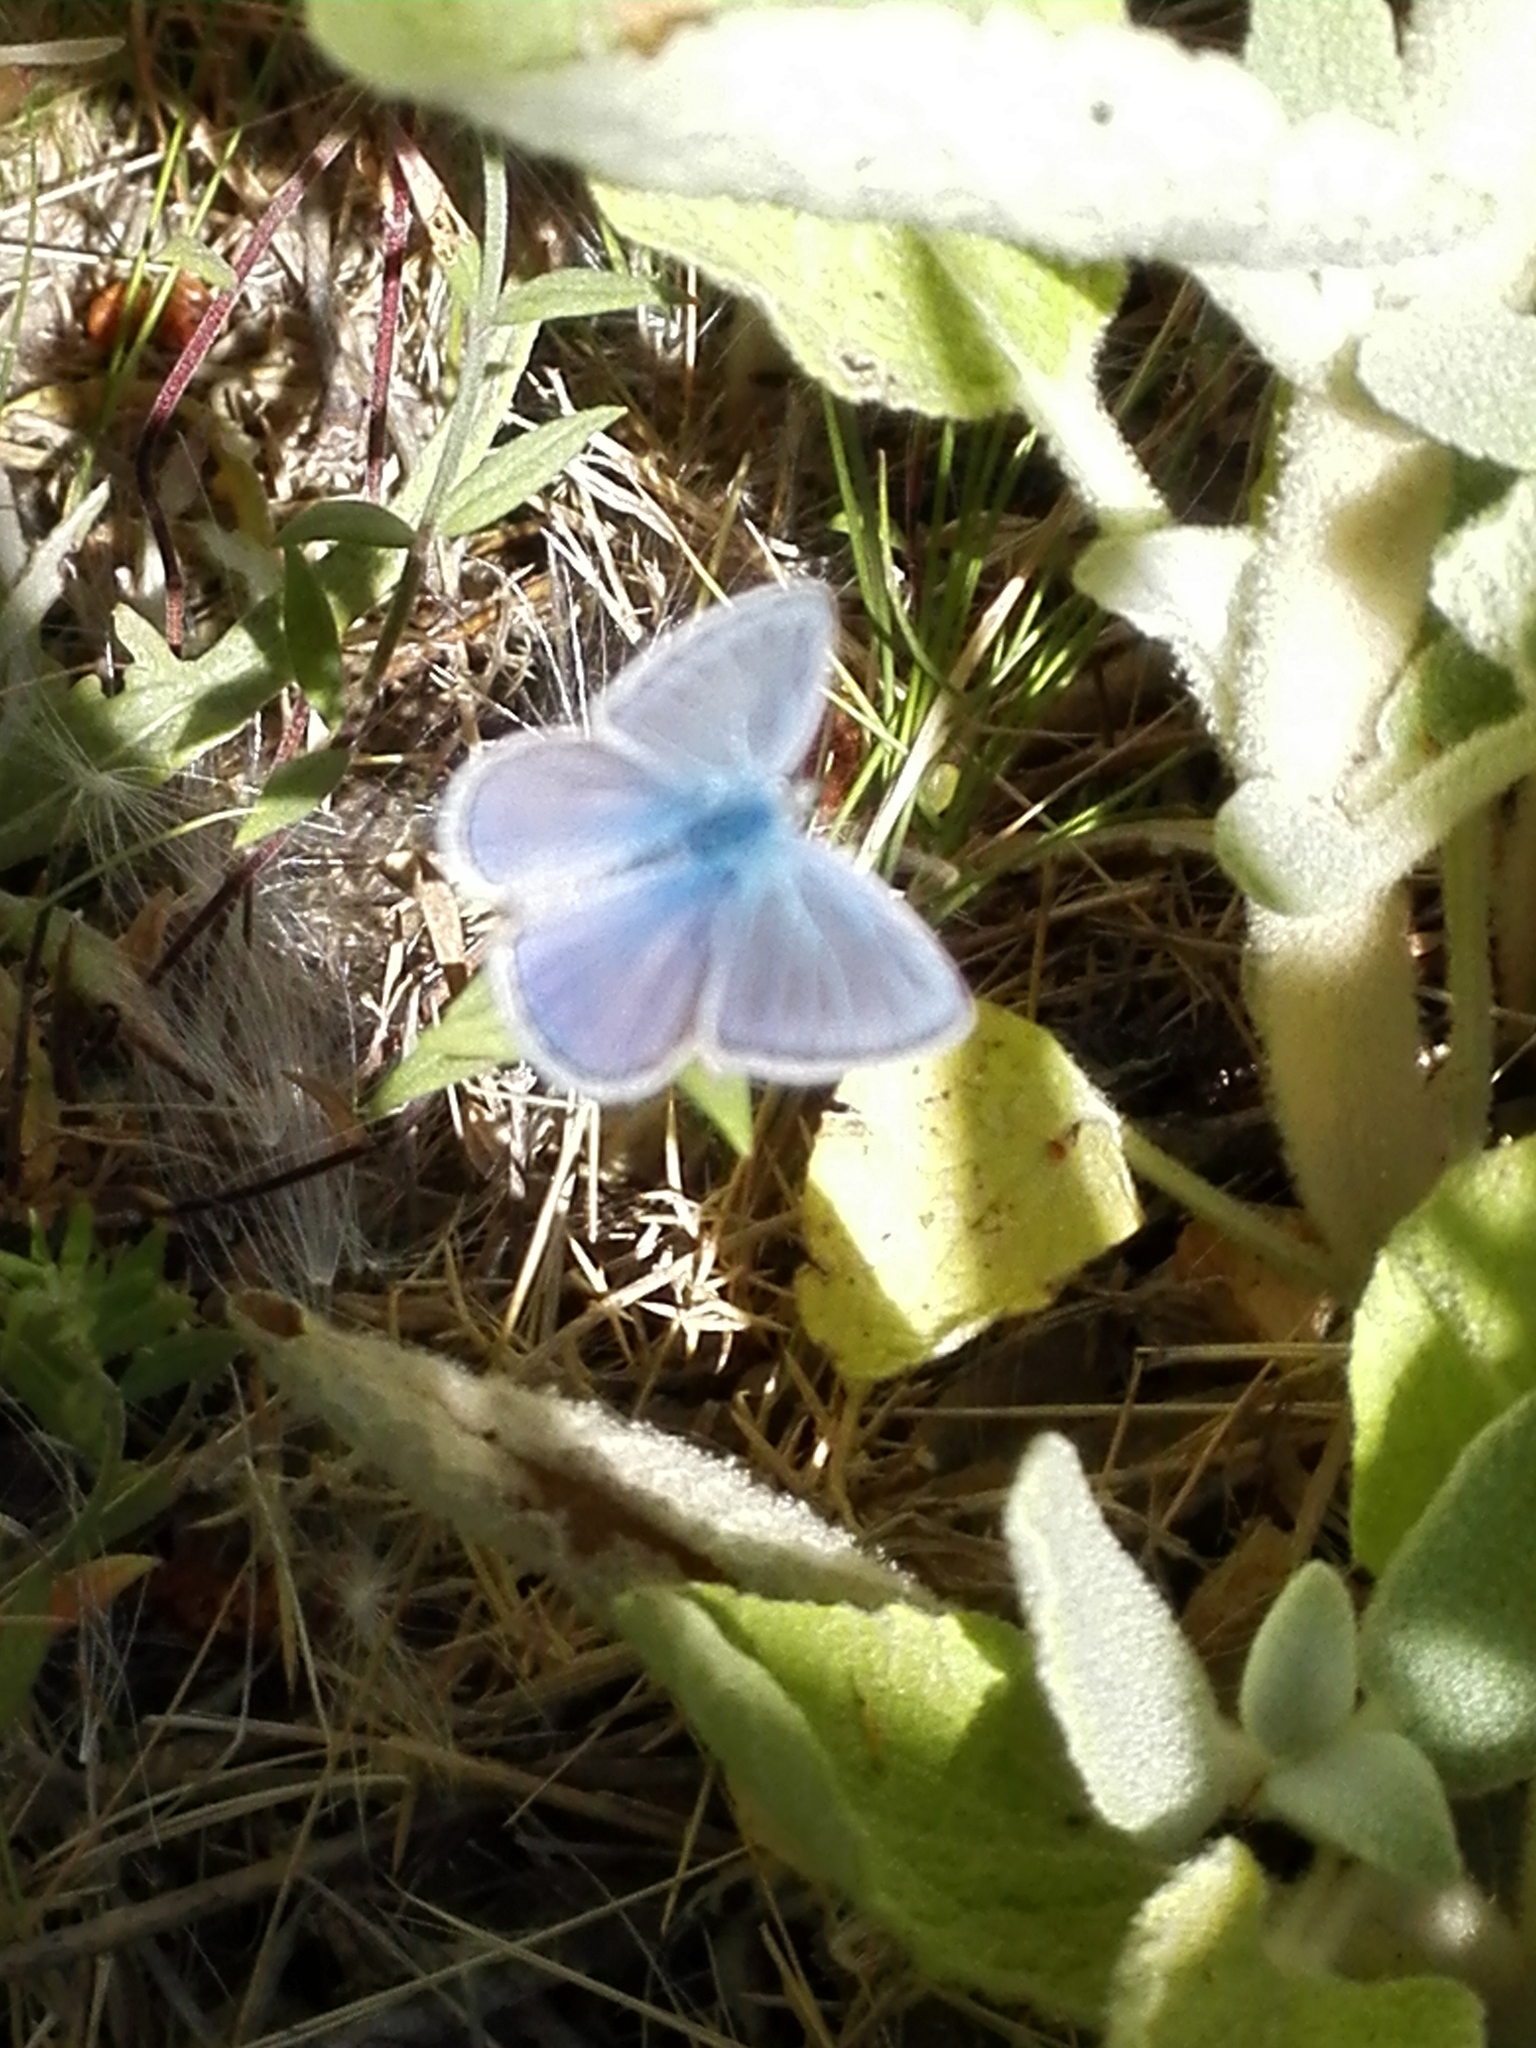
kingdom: Animalia
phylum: Arthropoda
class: Insecta
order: Lepidoptera
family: Lycaenidae
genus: Polyommatus
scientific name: Polyommatus celina
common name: Austaut's blue
